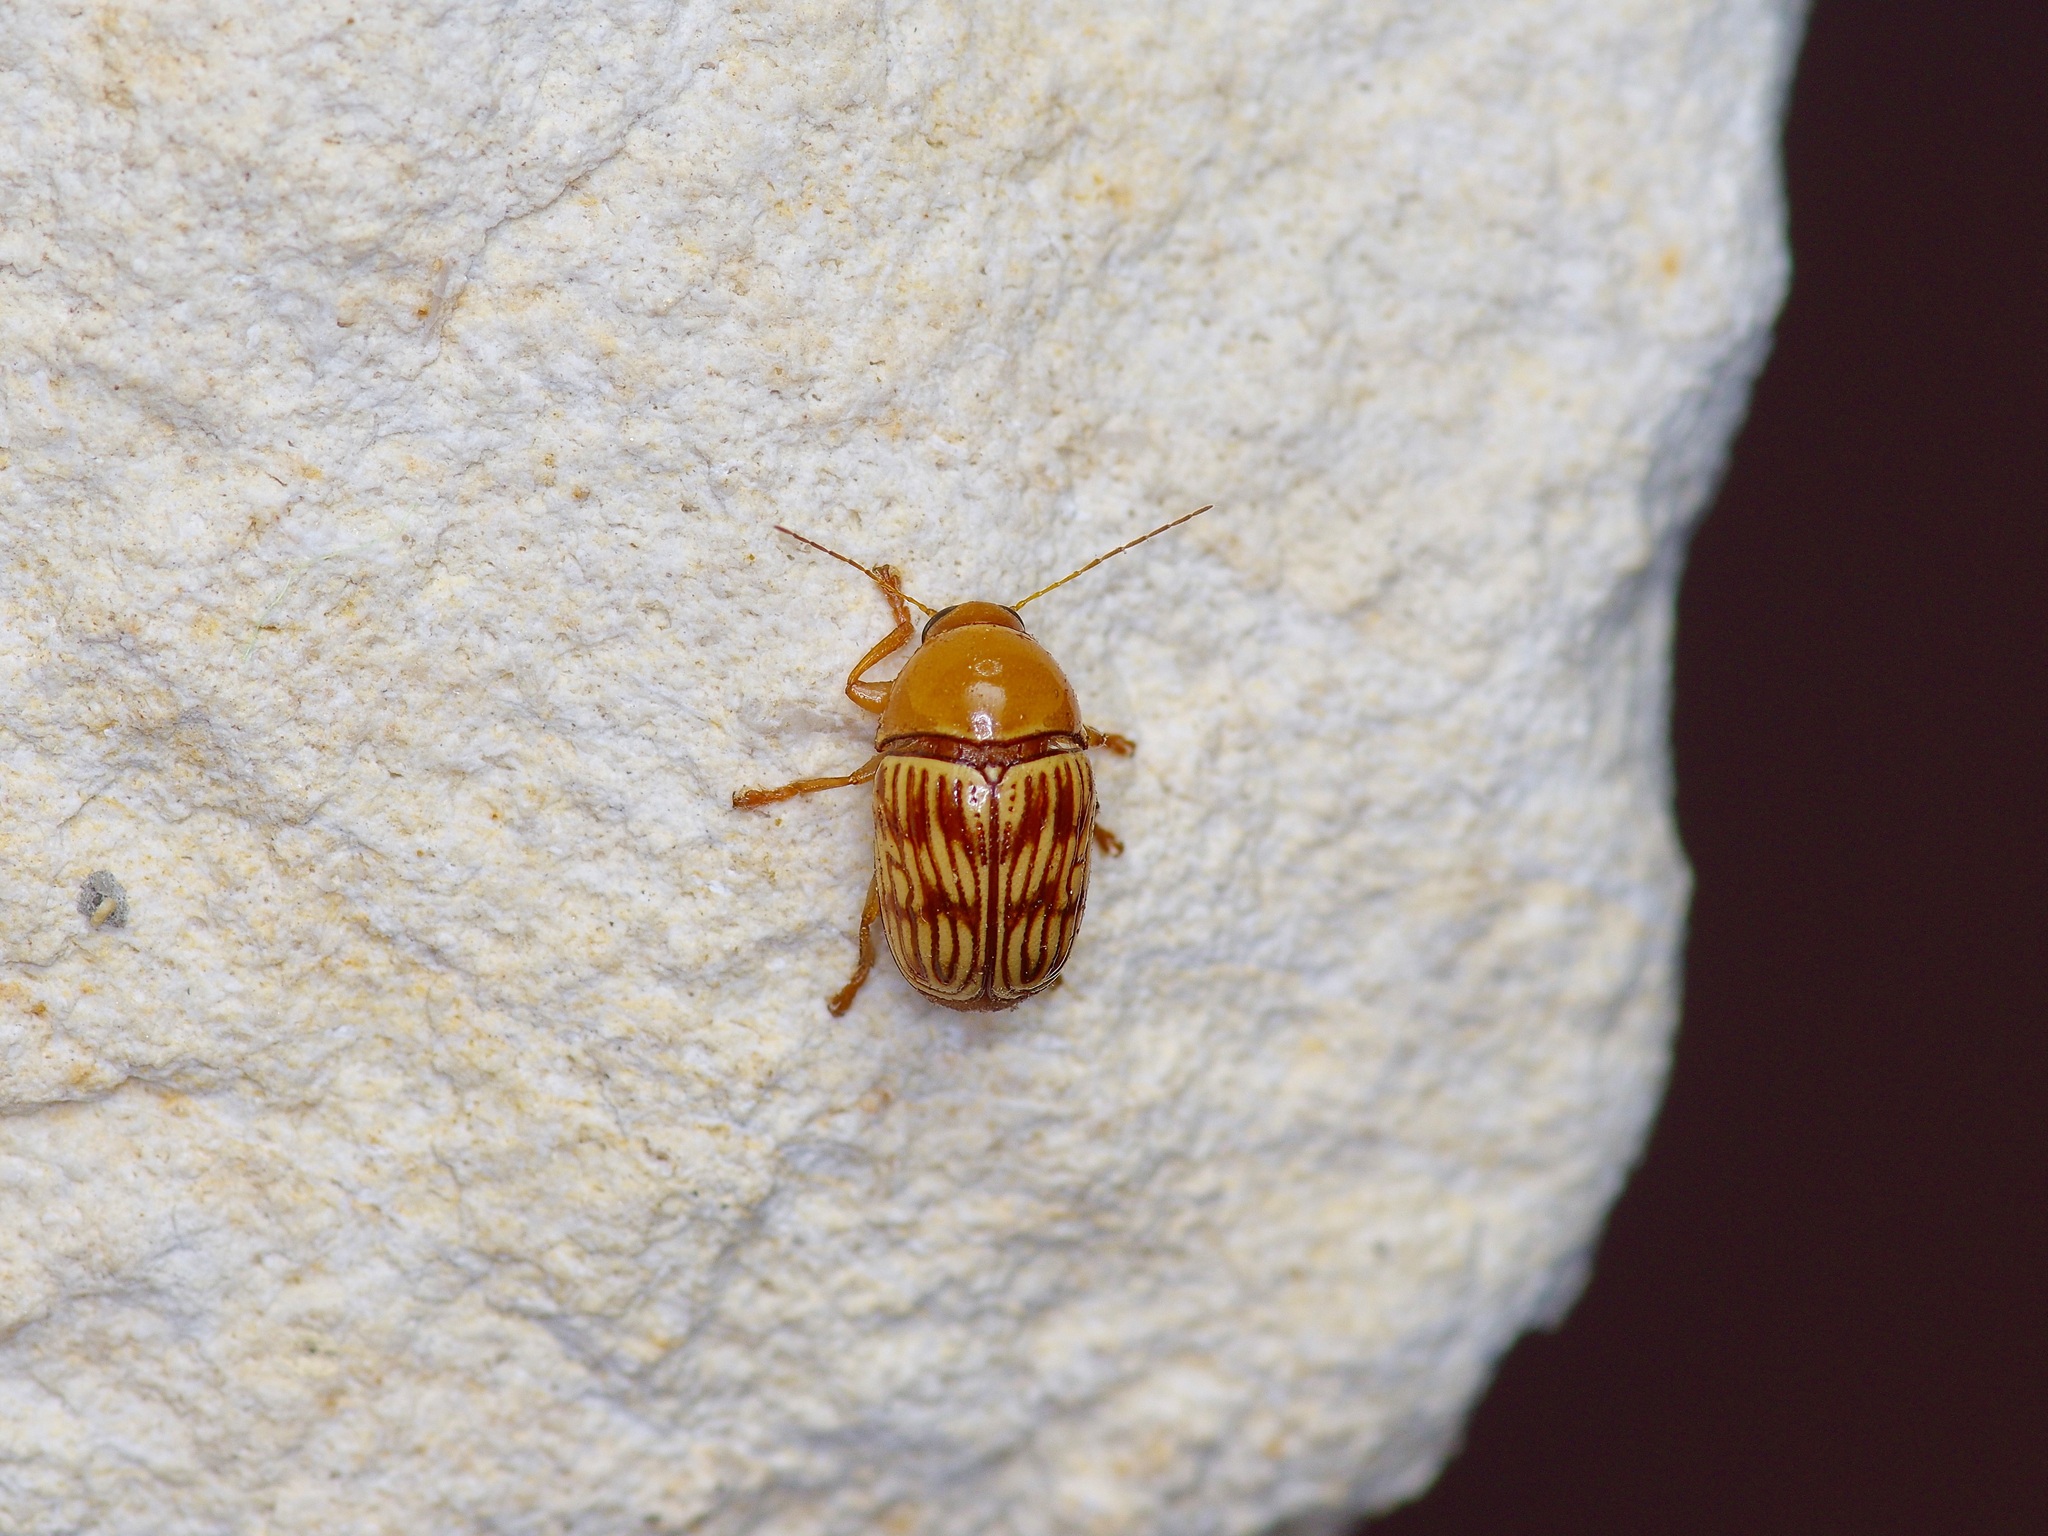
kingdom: Animalia
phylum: Arthropoda
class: Insecta
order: Coleoptera
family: Chrysomelidae
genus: Cryptocephalus
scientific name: Cryptocephalus fulguratus
